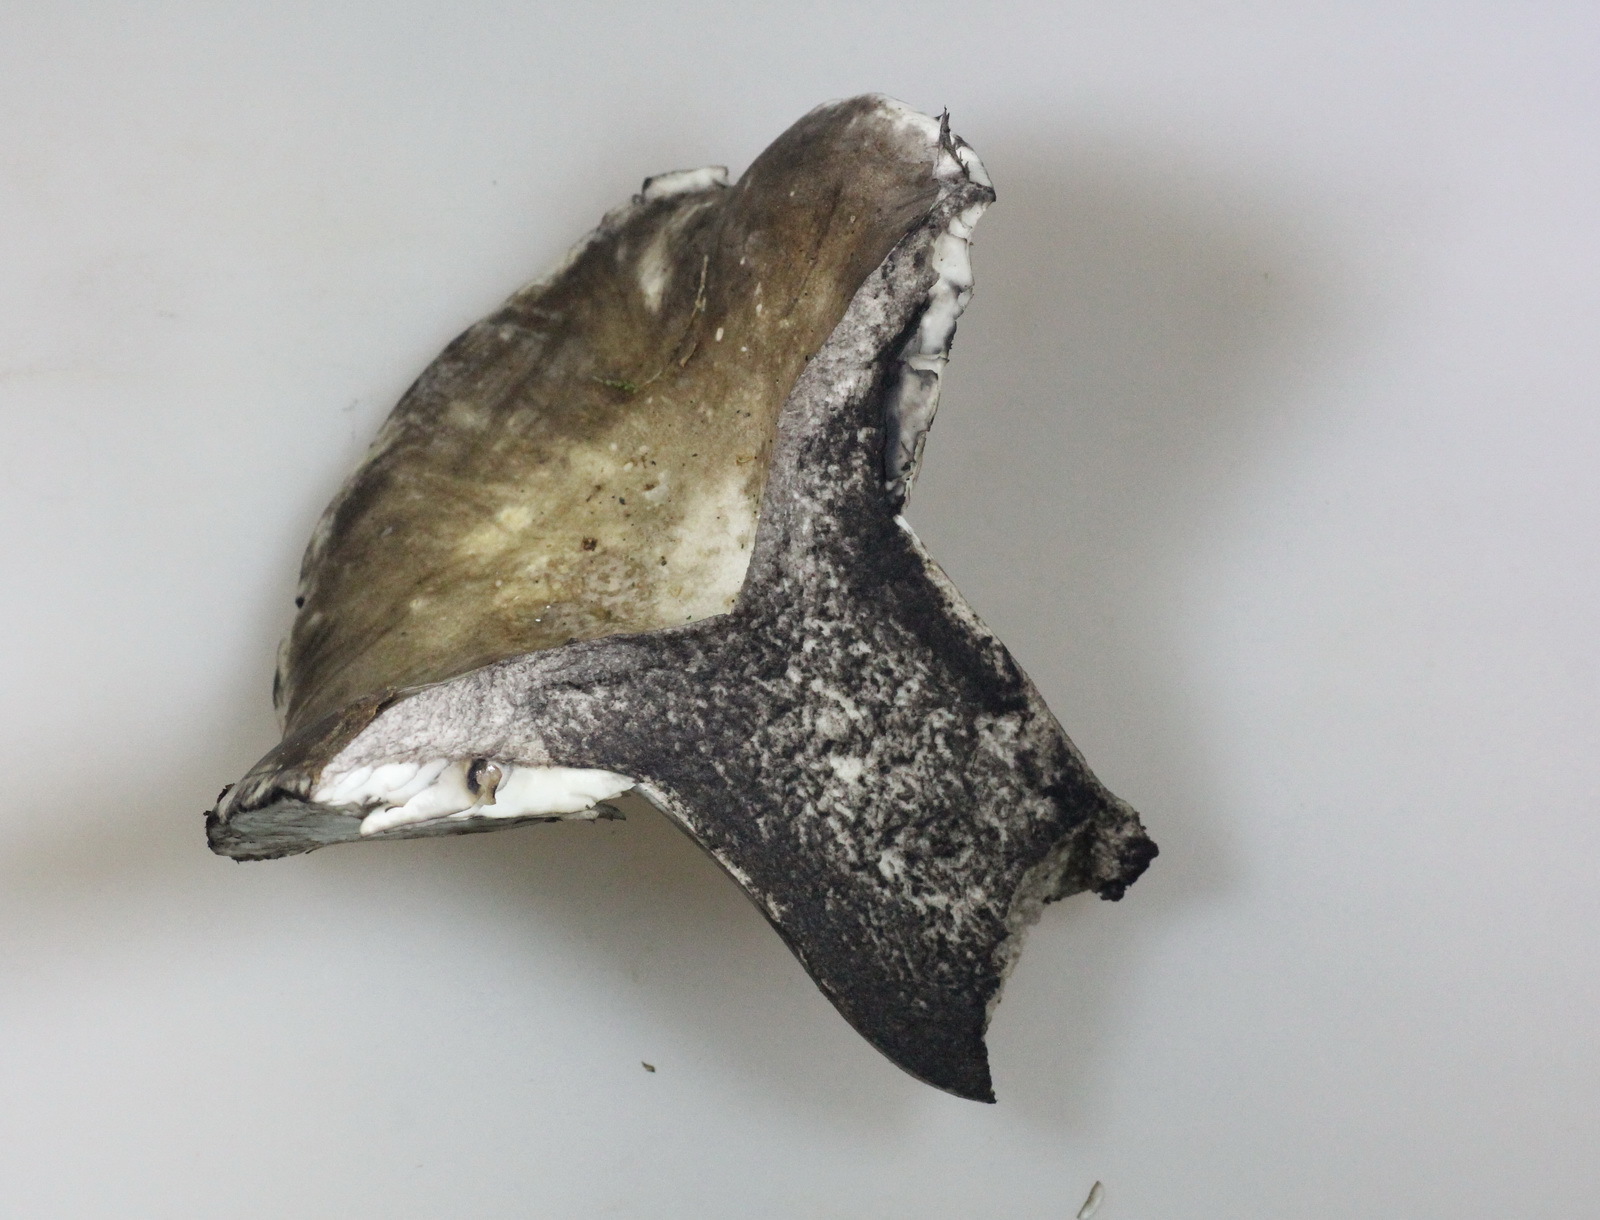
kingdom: Fungi
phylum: Basidiomycota
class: Agaricomycetes
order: Russulales
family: Russulaceae
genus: Russula
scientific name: Russula albonigra
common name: Menthol brittlegill
